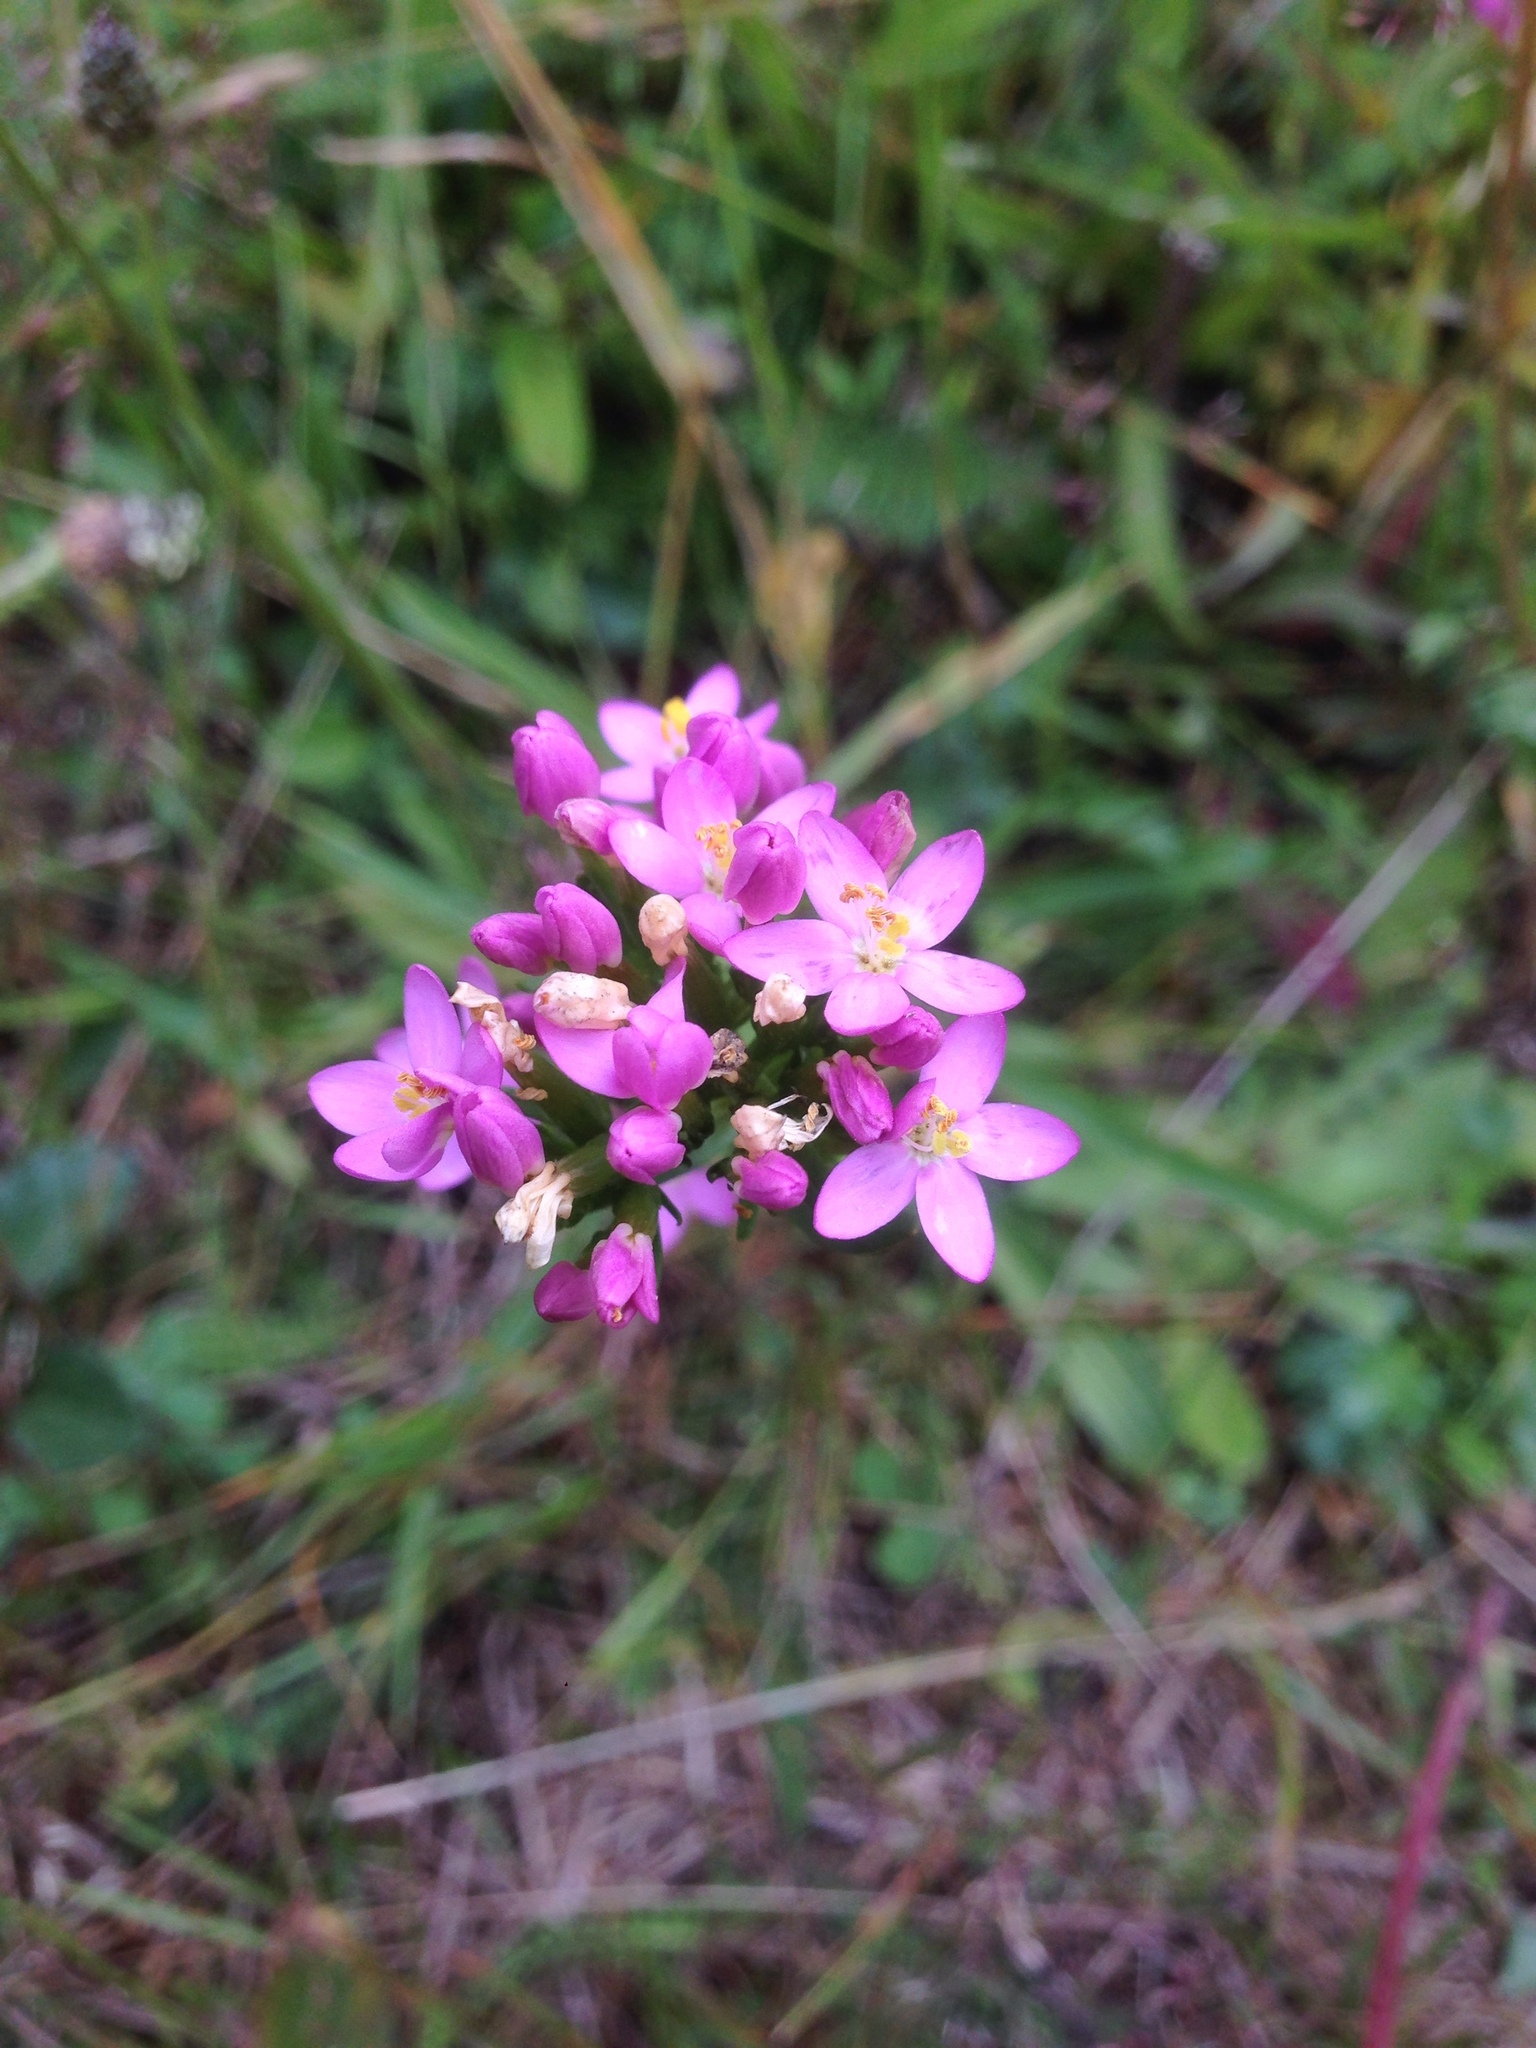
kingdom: Plantae
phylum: Tracheophyta
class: Magnoliopsida
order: Gentianales
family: Gentianaceae
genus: Centaurium
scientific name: Centaurium erythraea
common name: Common centaury
